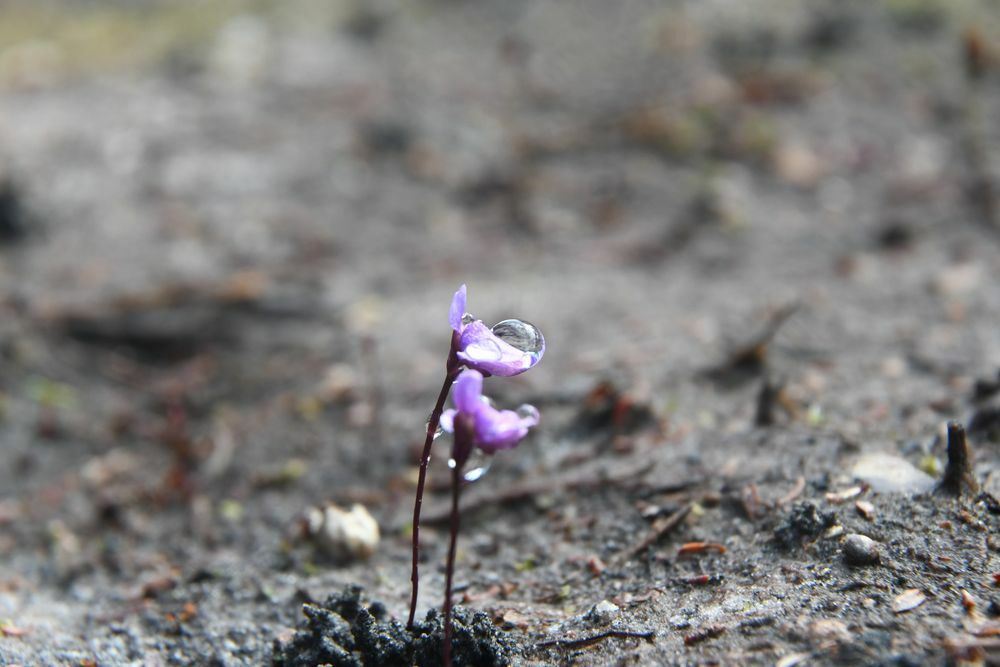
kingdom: Plantae
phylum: Tracheophyta
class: Magnoliopsida
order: Lamiales
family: Lentibulariaceae
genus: Utricularia
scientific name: Utricularia simplex
